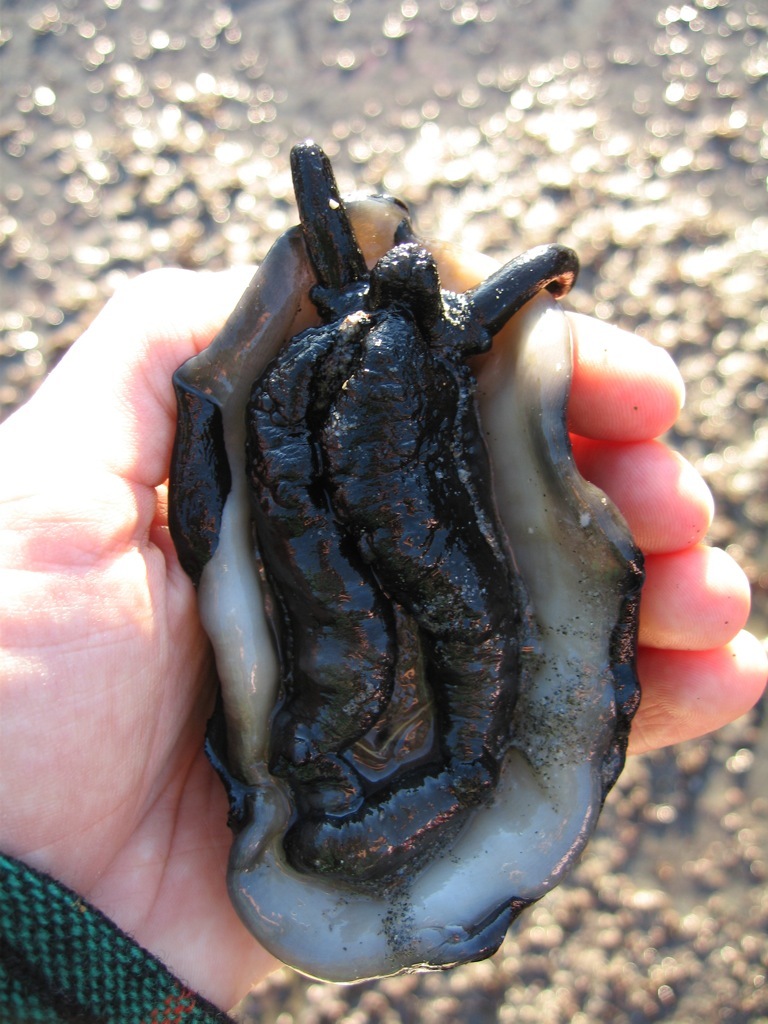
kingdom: Animalia
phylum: Mollusca
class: Gastropoda
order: Lepetellida
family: Fissurellidae
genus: Scutus
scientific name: Scutus breviculus
